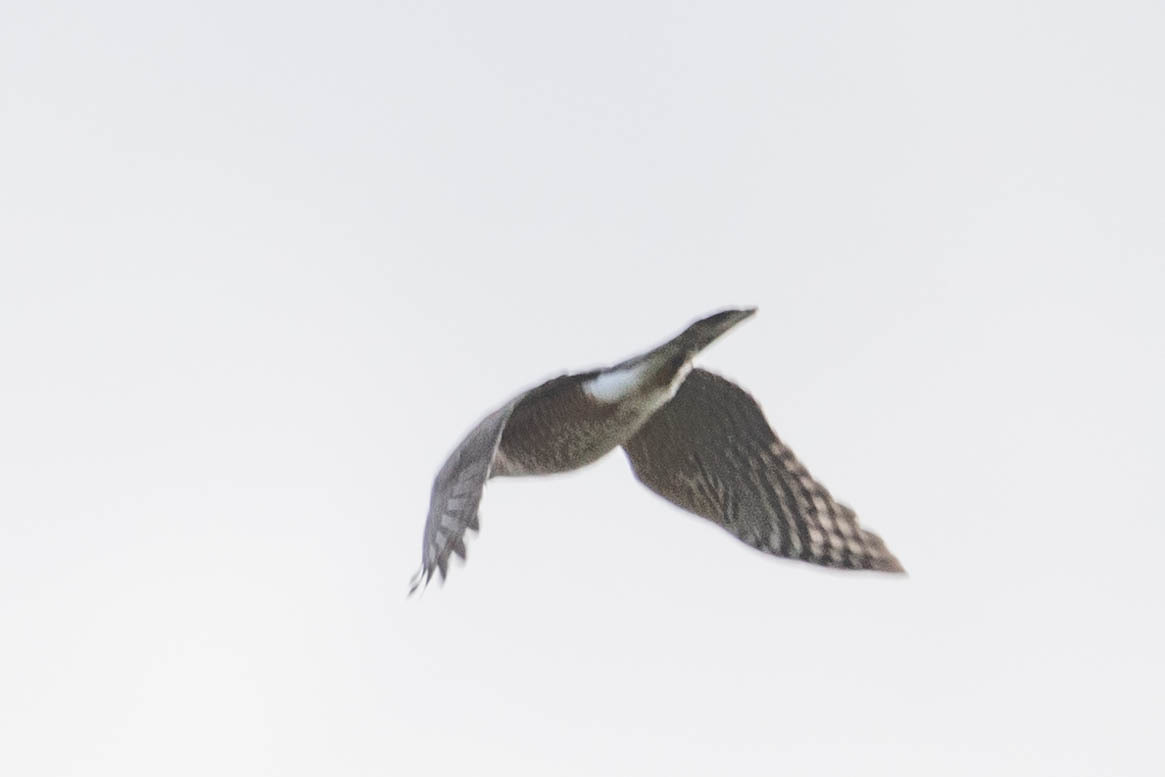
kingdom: Animalia
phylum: Chordata
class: Aves
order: Accipitriformes
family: Accipitridae
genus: Accipiter
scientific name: Accipiter cooperii
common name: Cooper's hawk
